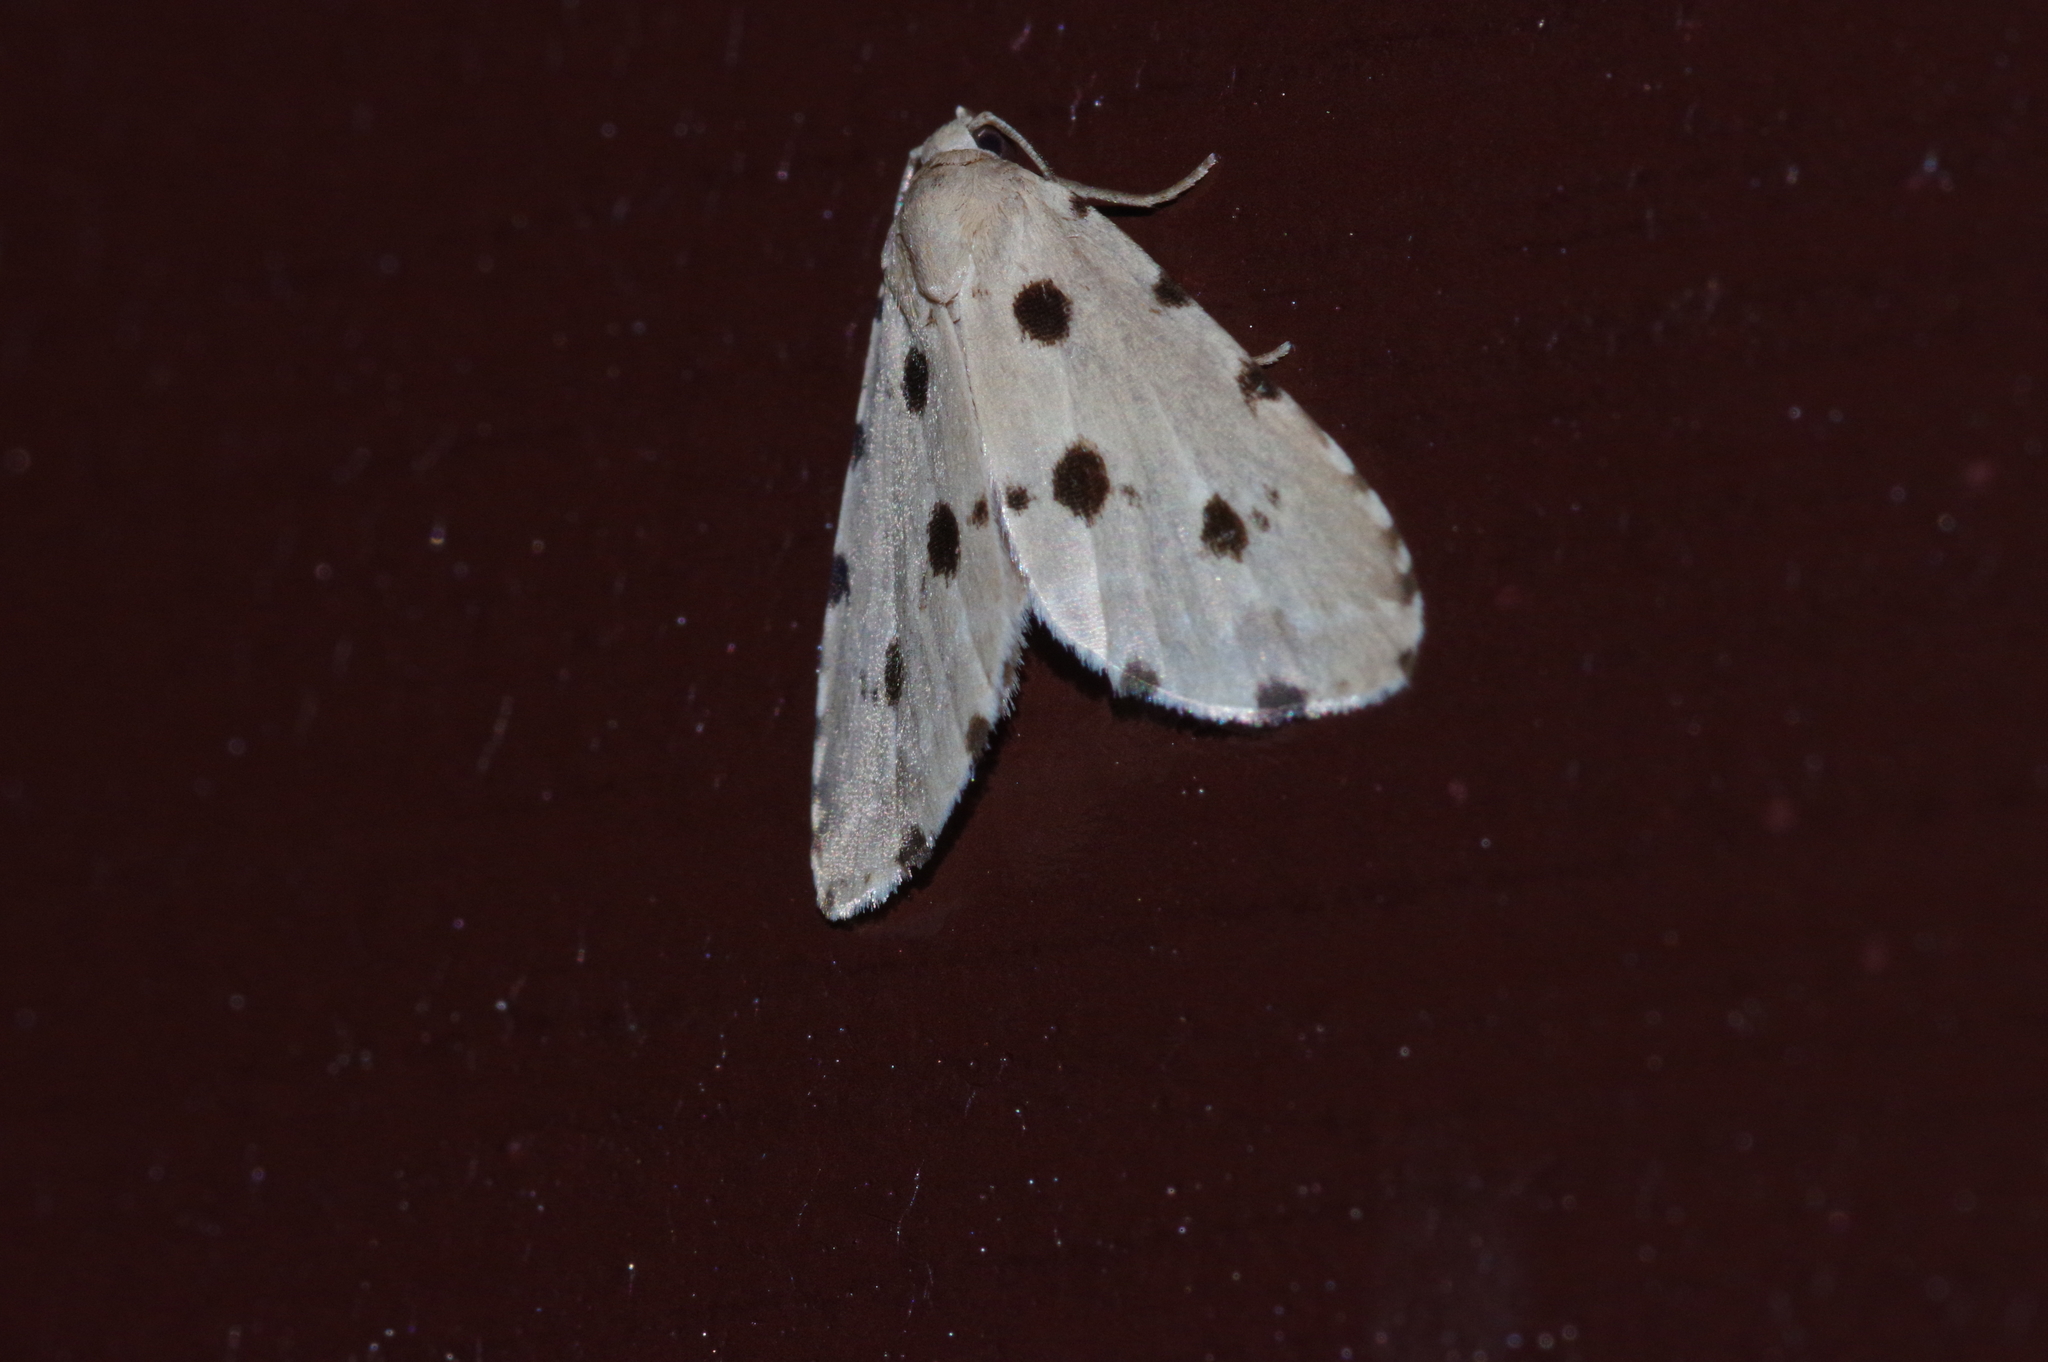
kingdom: Animalia
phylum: Arthropoda
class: Insecta
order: Lepidoptera
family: Noctuidae
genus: Metaemene
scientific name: Metaemene atrigutta
